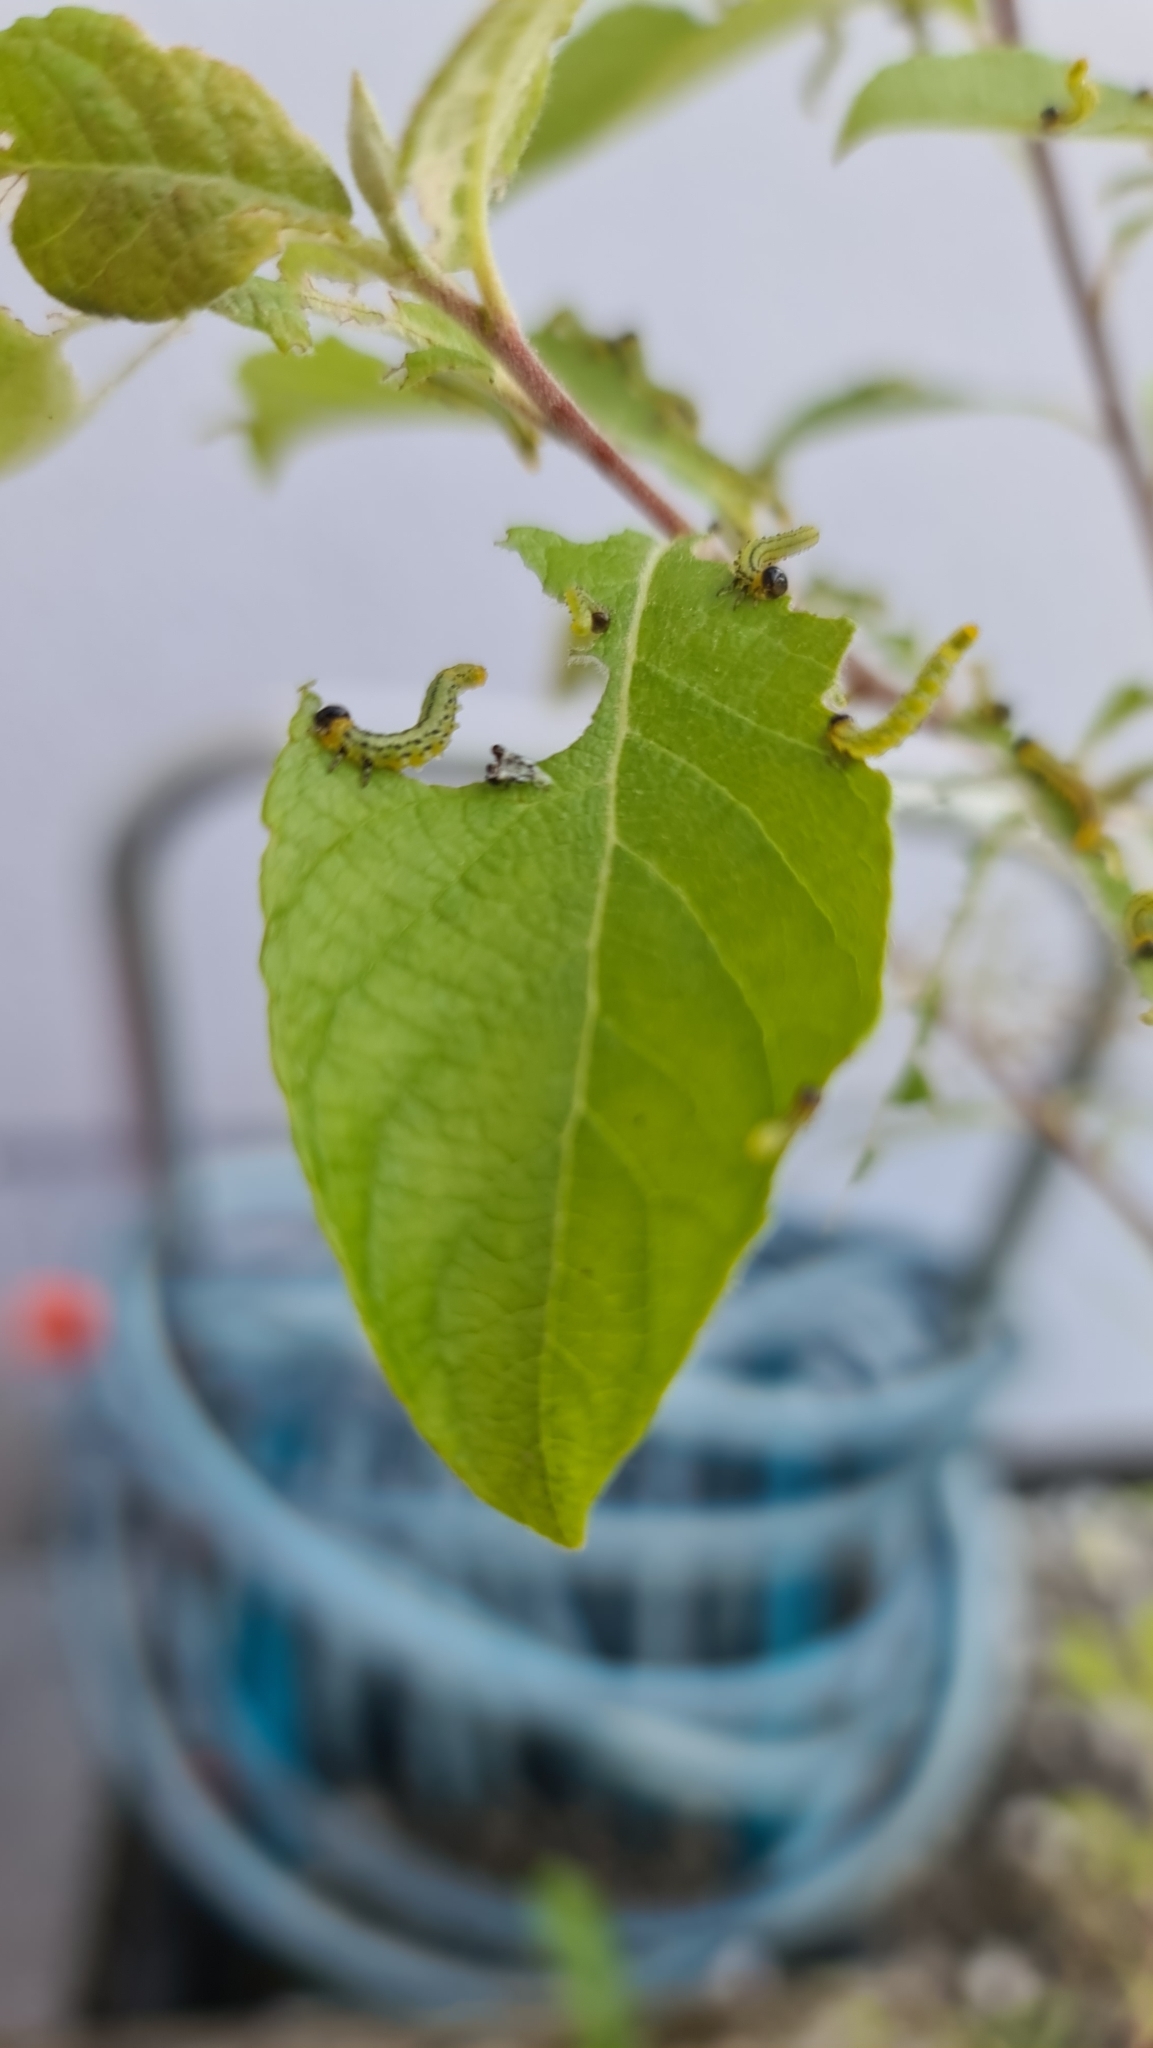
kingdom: Animalia
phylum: Arthropoda
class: Insecta
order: Hymenoptera
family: Tenthredinidae
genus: Nematus
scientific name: Nematus pavidus
